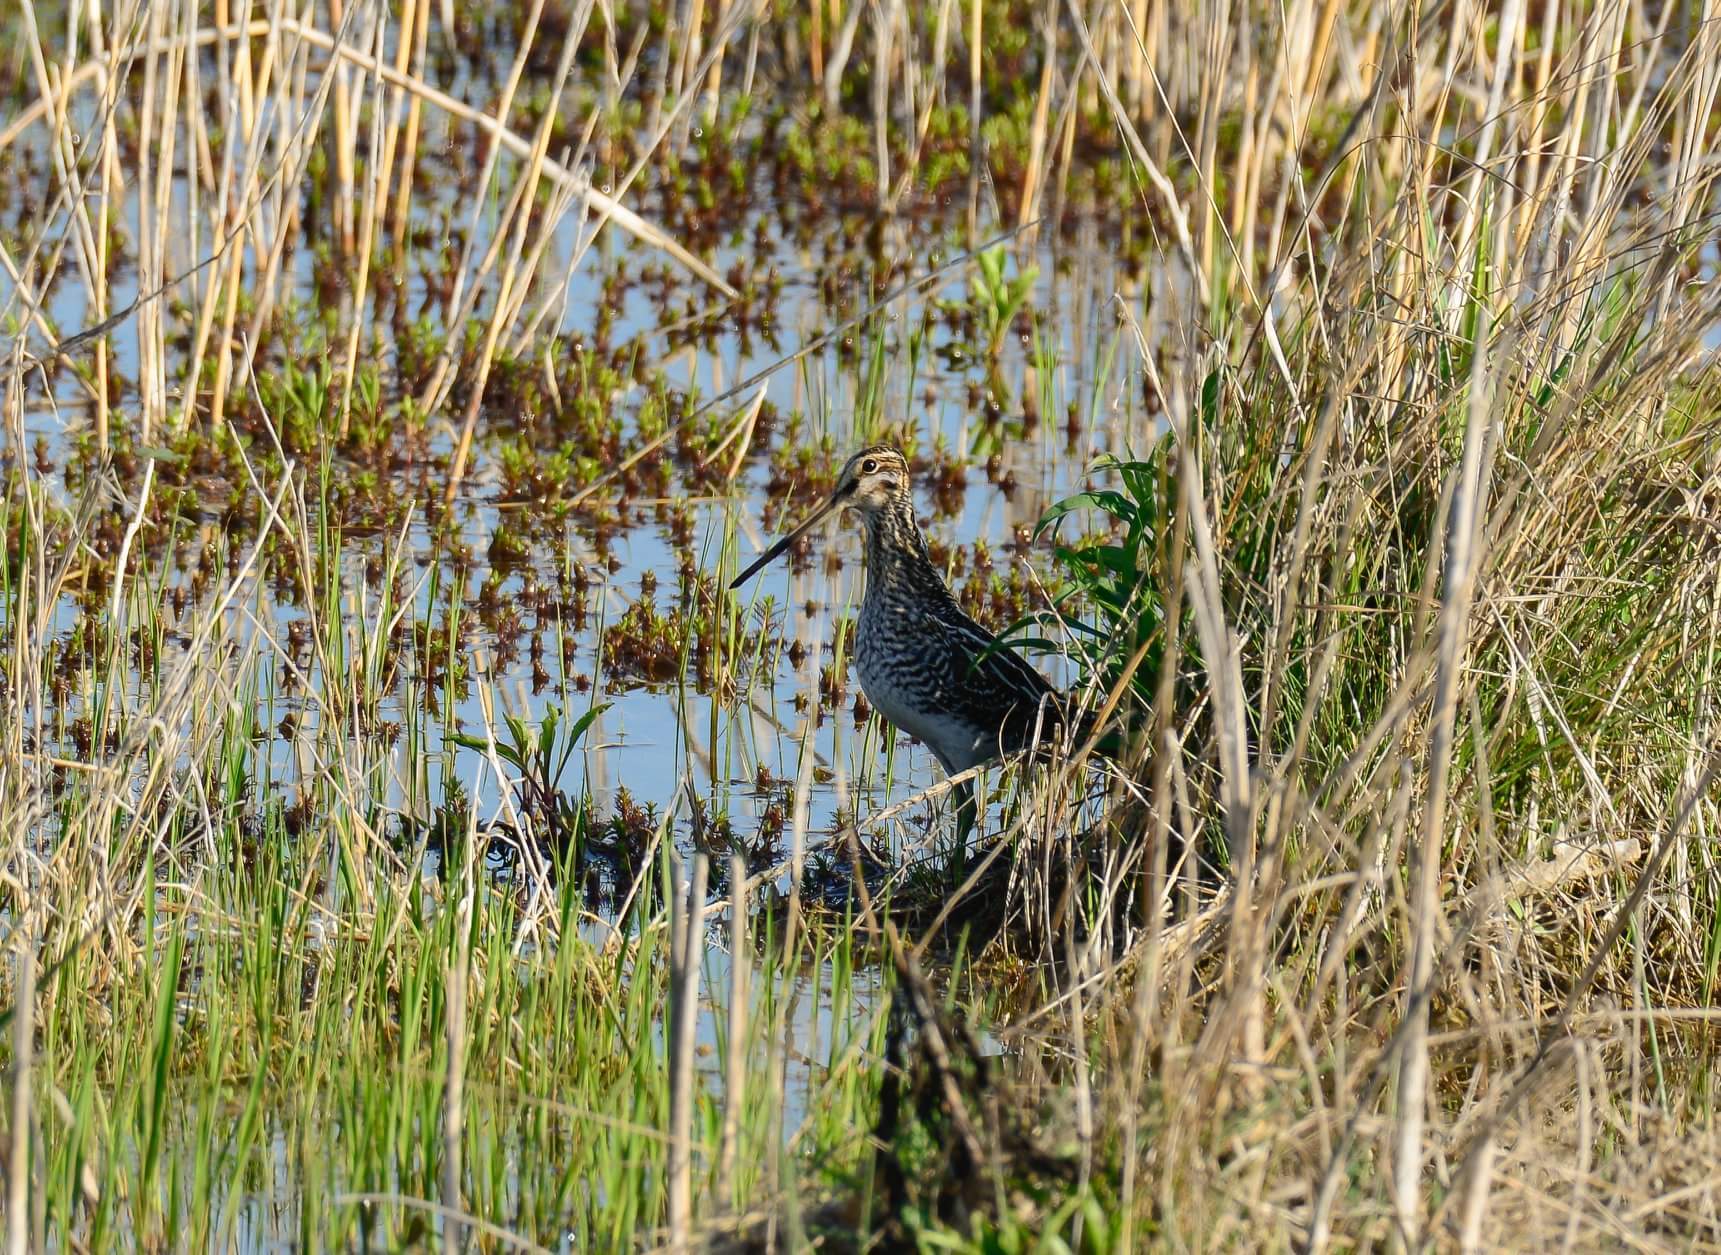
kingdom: Animalia
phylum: Chordata
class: Aves
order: Charadriiformes
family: Scolopacidae
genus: Gallinago
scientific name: Gallinago delicata
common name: Wilson's snipe
